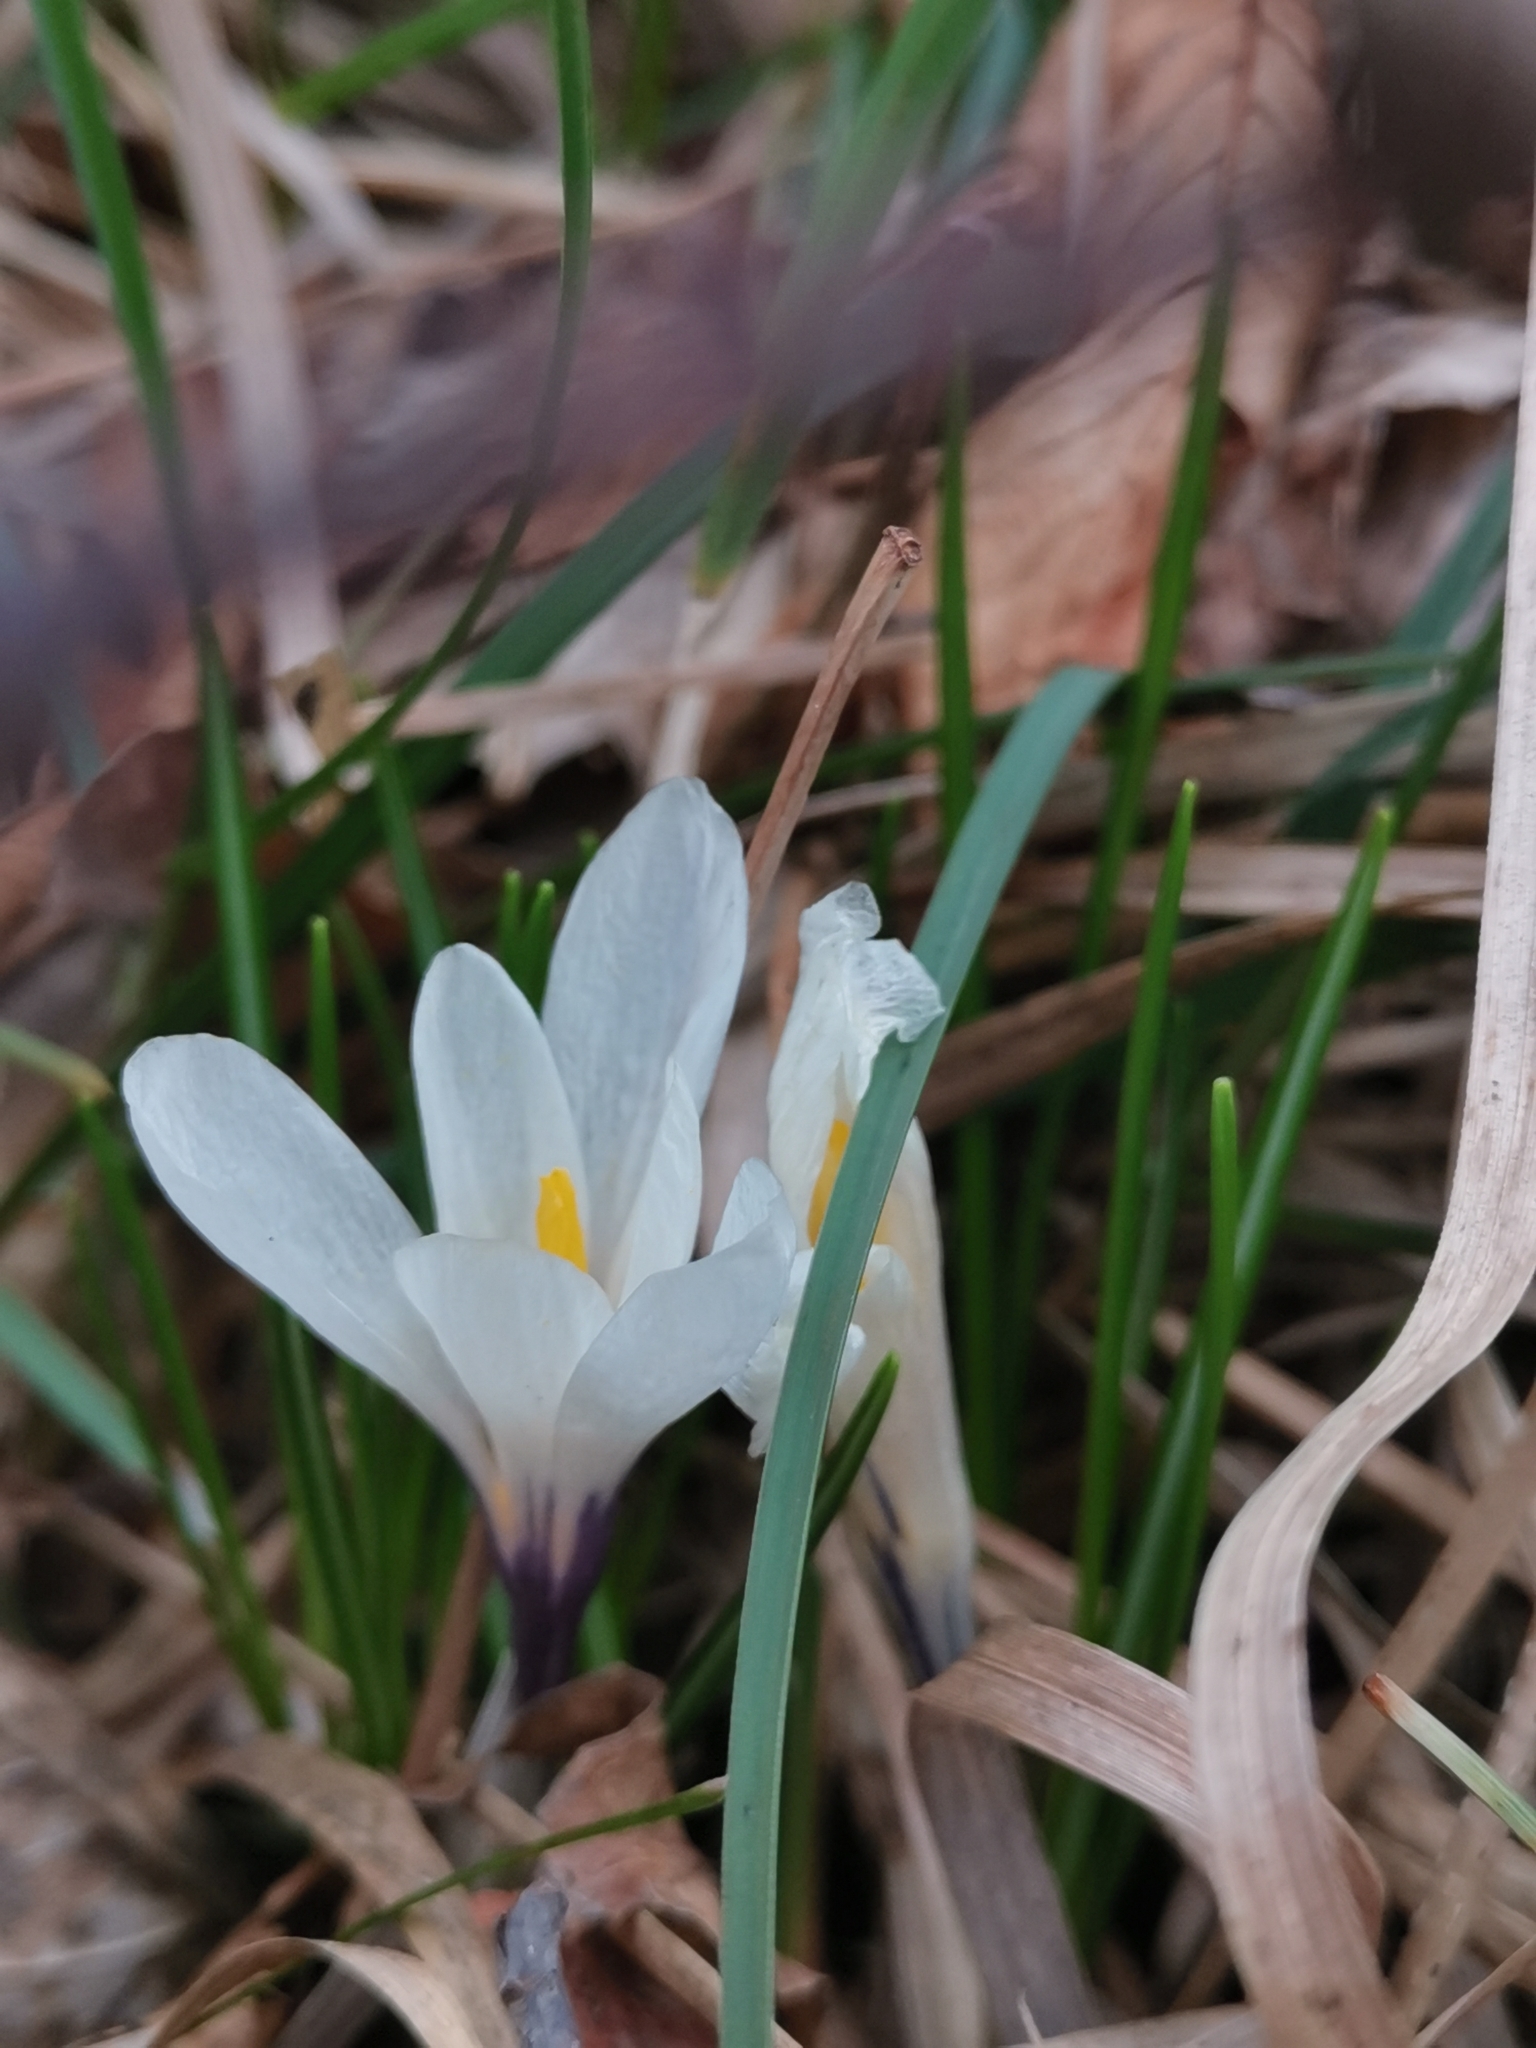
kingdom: Plantae
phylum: Tracheophyta
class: Liliopsida
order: Asparagales
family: Iridaceae
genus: Crocus
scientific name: Crocus vernus
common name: Spring crocus
